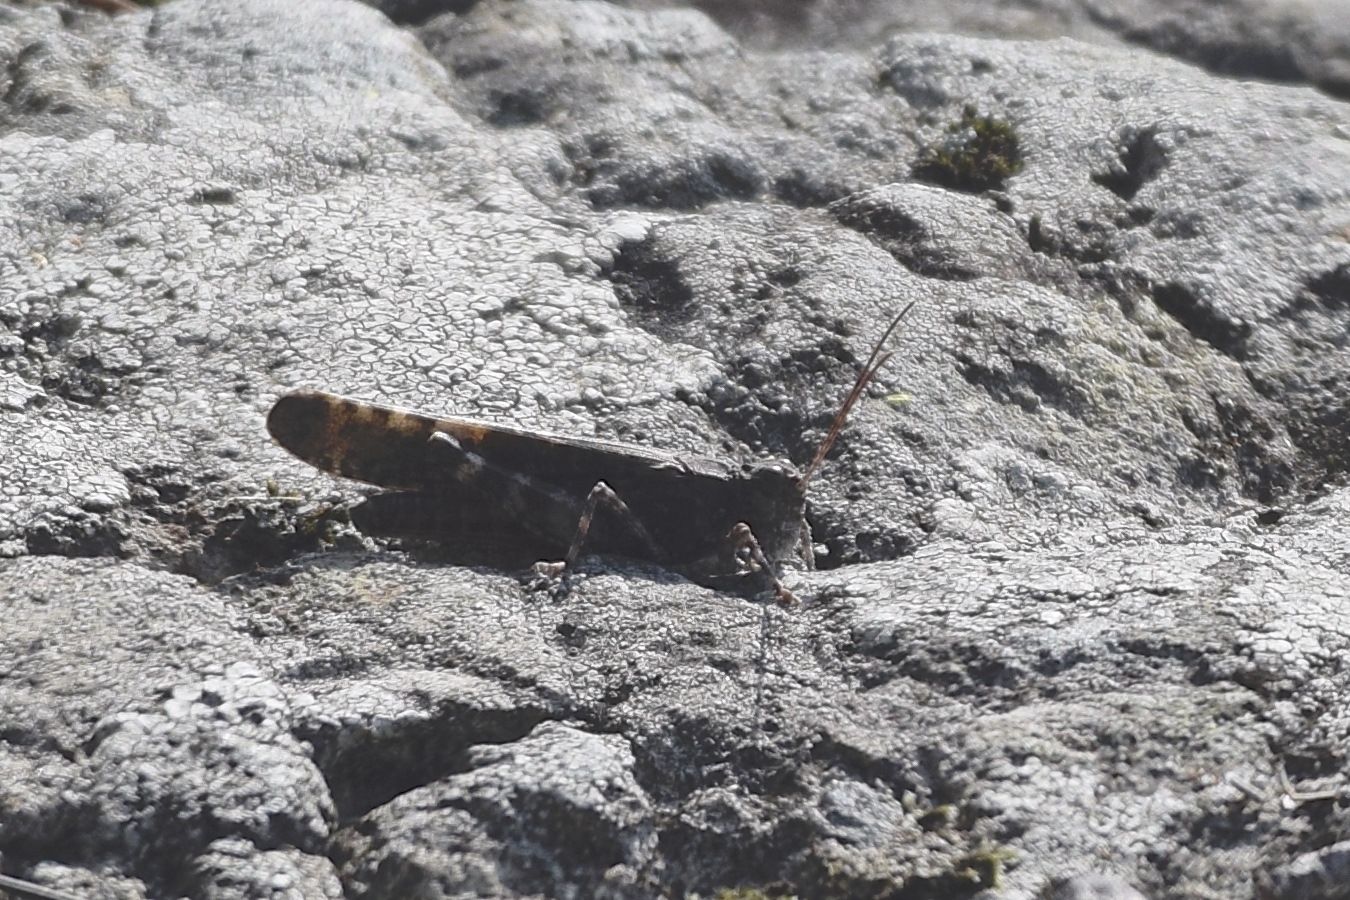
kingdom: Animalia
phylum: Arthropoda
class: Insecta
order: Orthoptera
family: Acrididae
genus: Trimerotropis
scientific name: Trimerotropis verruculata
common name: Crackling forest grasshopper
